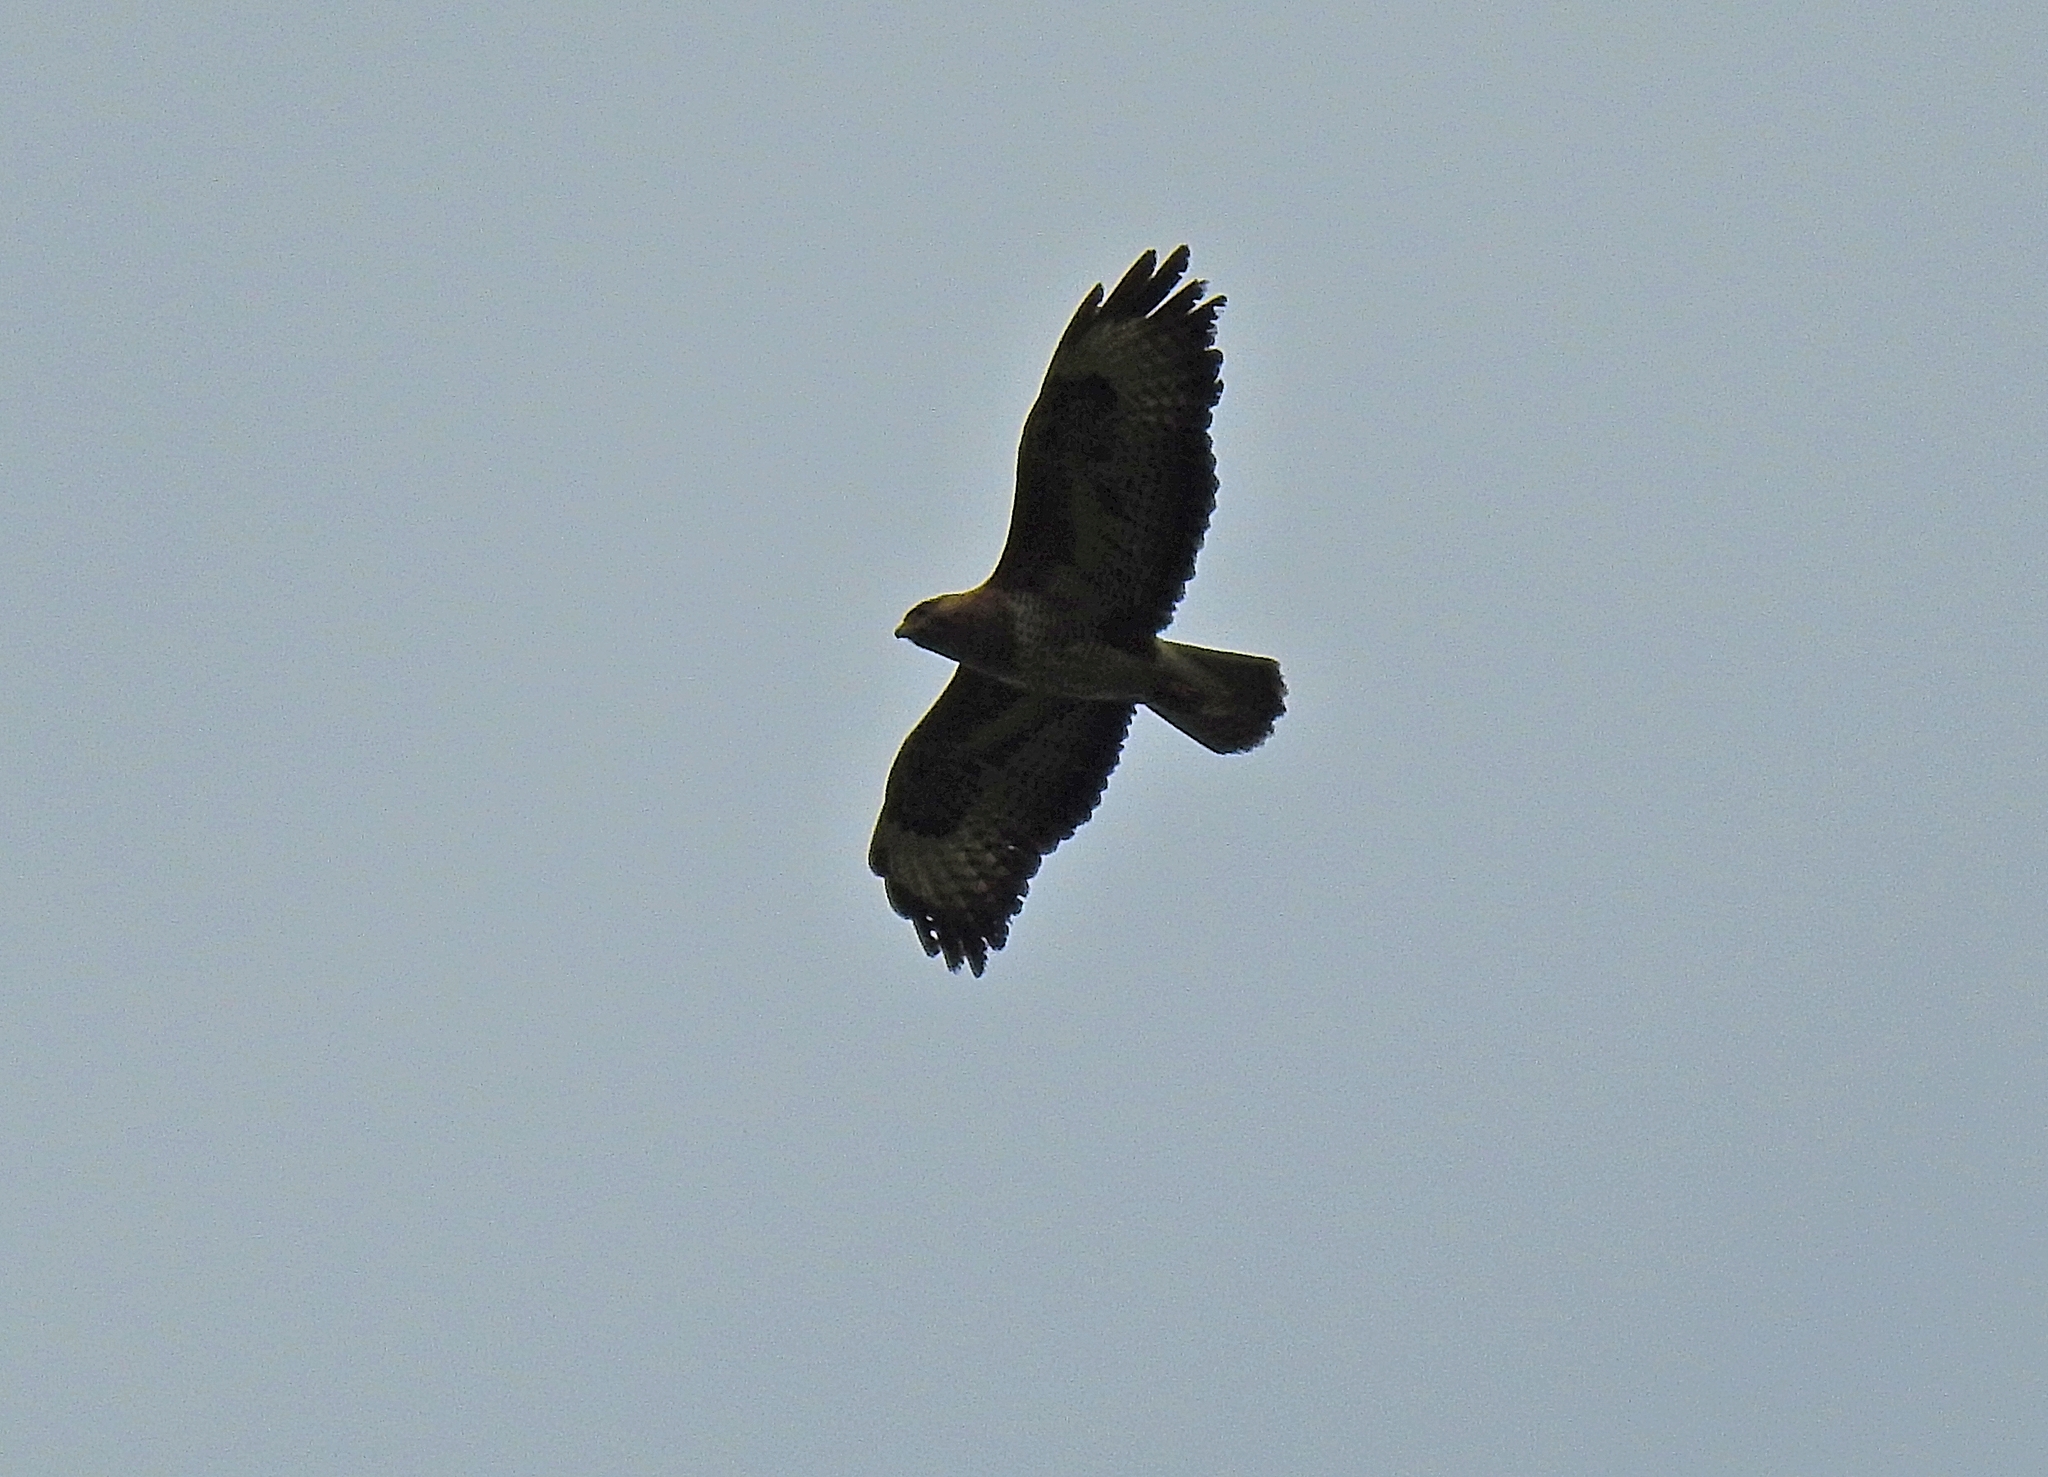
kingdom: Animalia
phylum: Chordata
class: Aves
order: Accipitriformes
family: Accipitridae
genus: Buteo
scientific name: Buteo buteo
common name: Common buzzard
